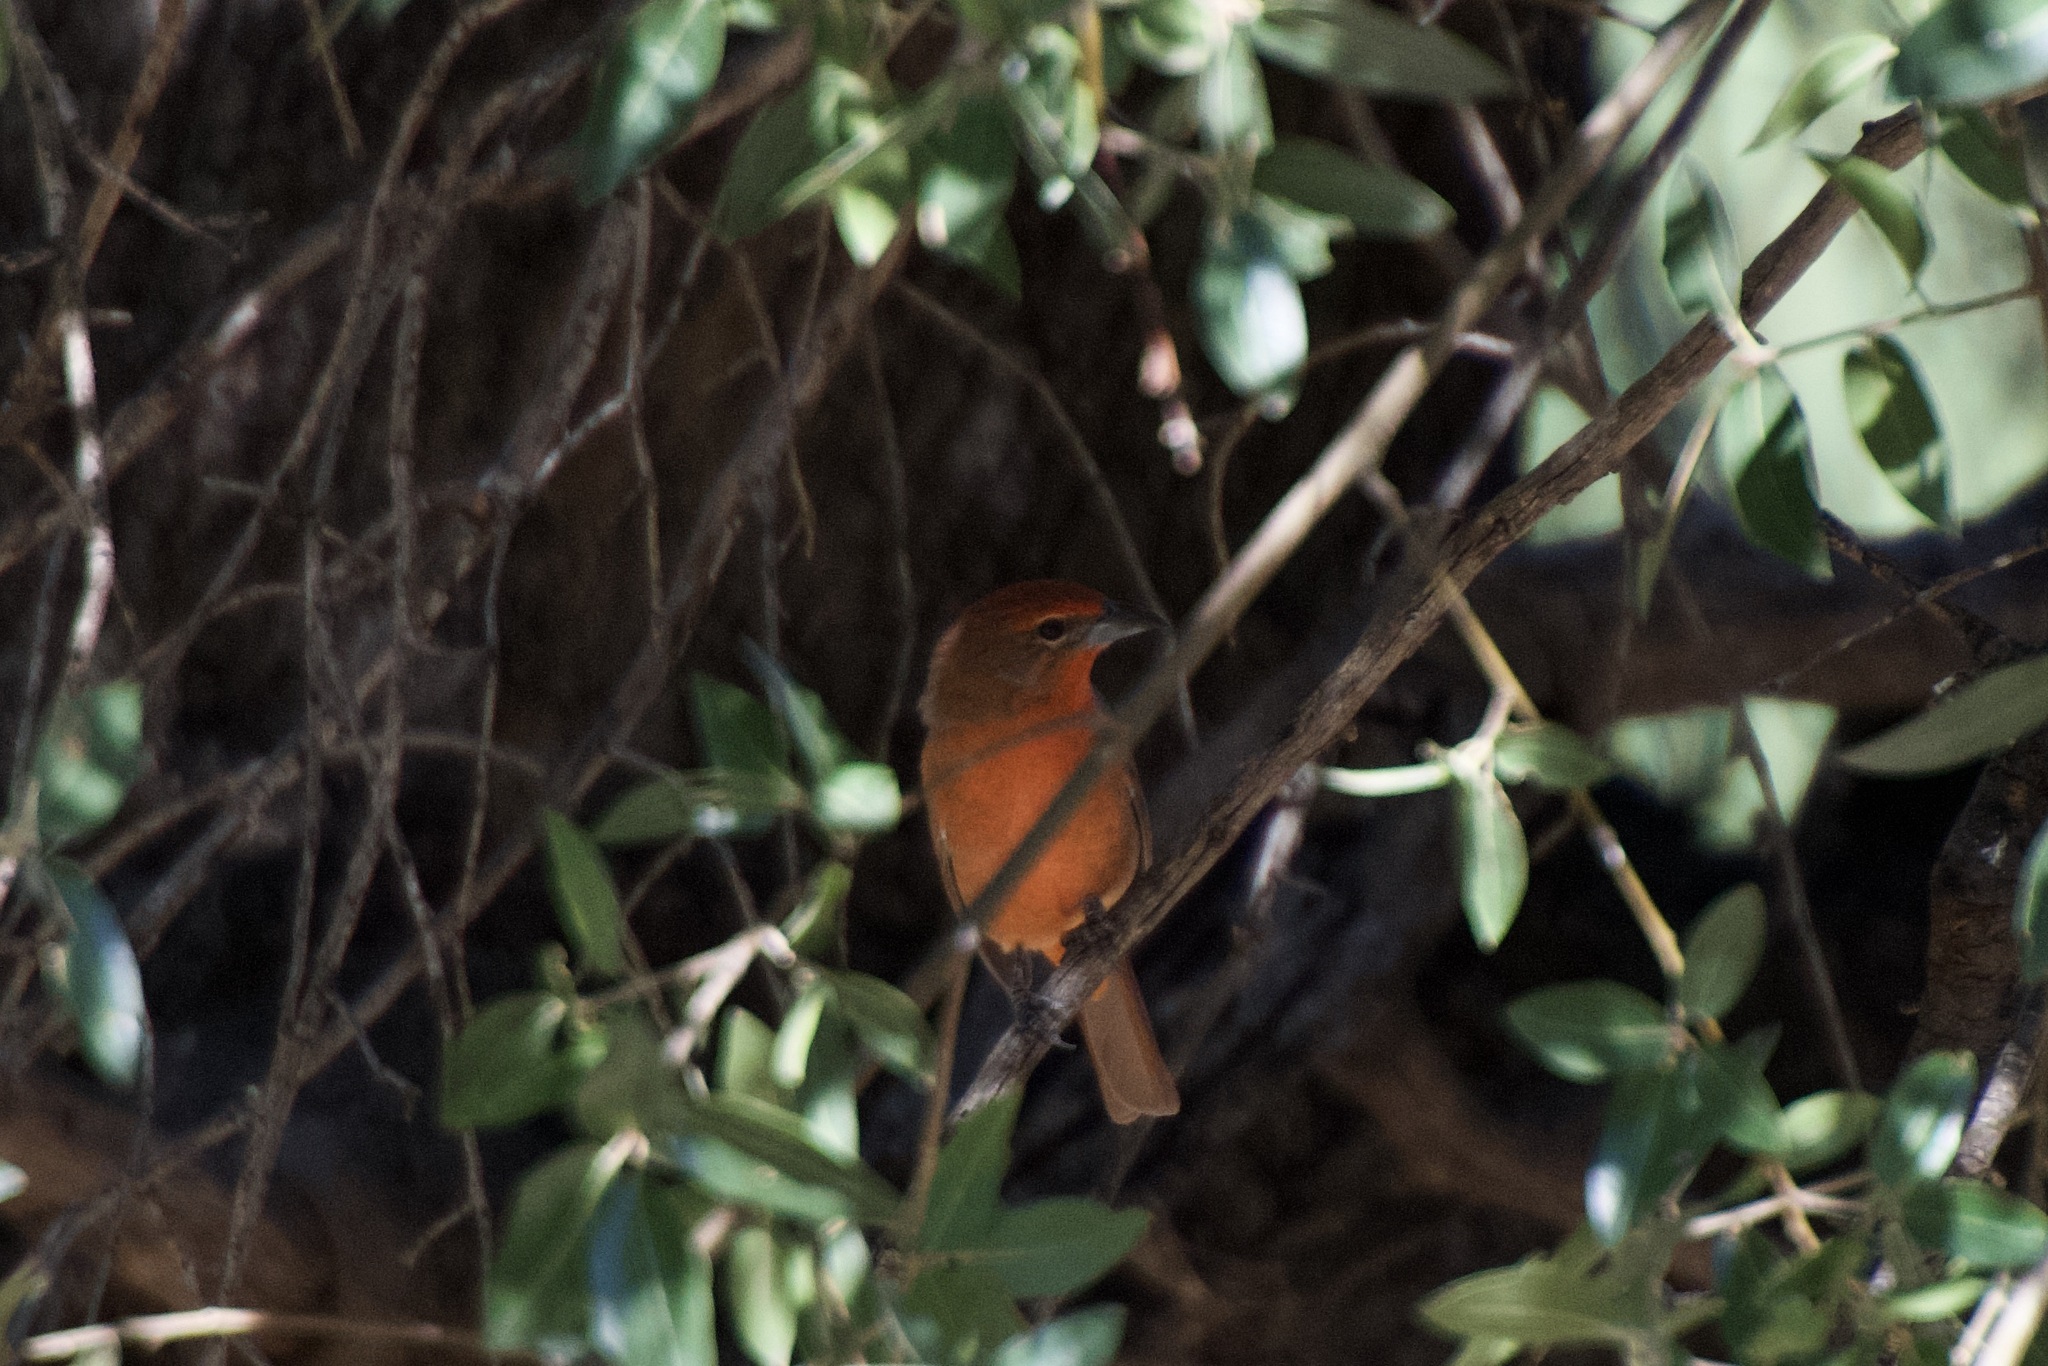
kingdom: Animalia
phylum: Chordata
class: Aves
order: Passeriformes
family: Cardinalidae
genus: Piranga
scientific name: Piranga flava
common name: Red tanager
